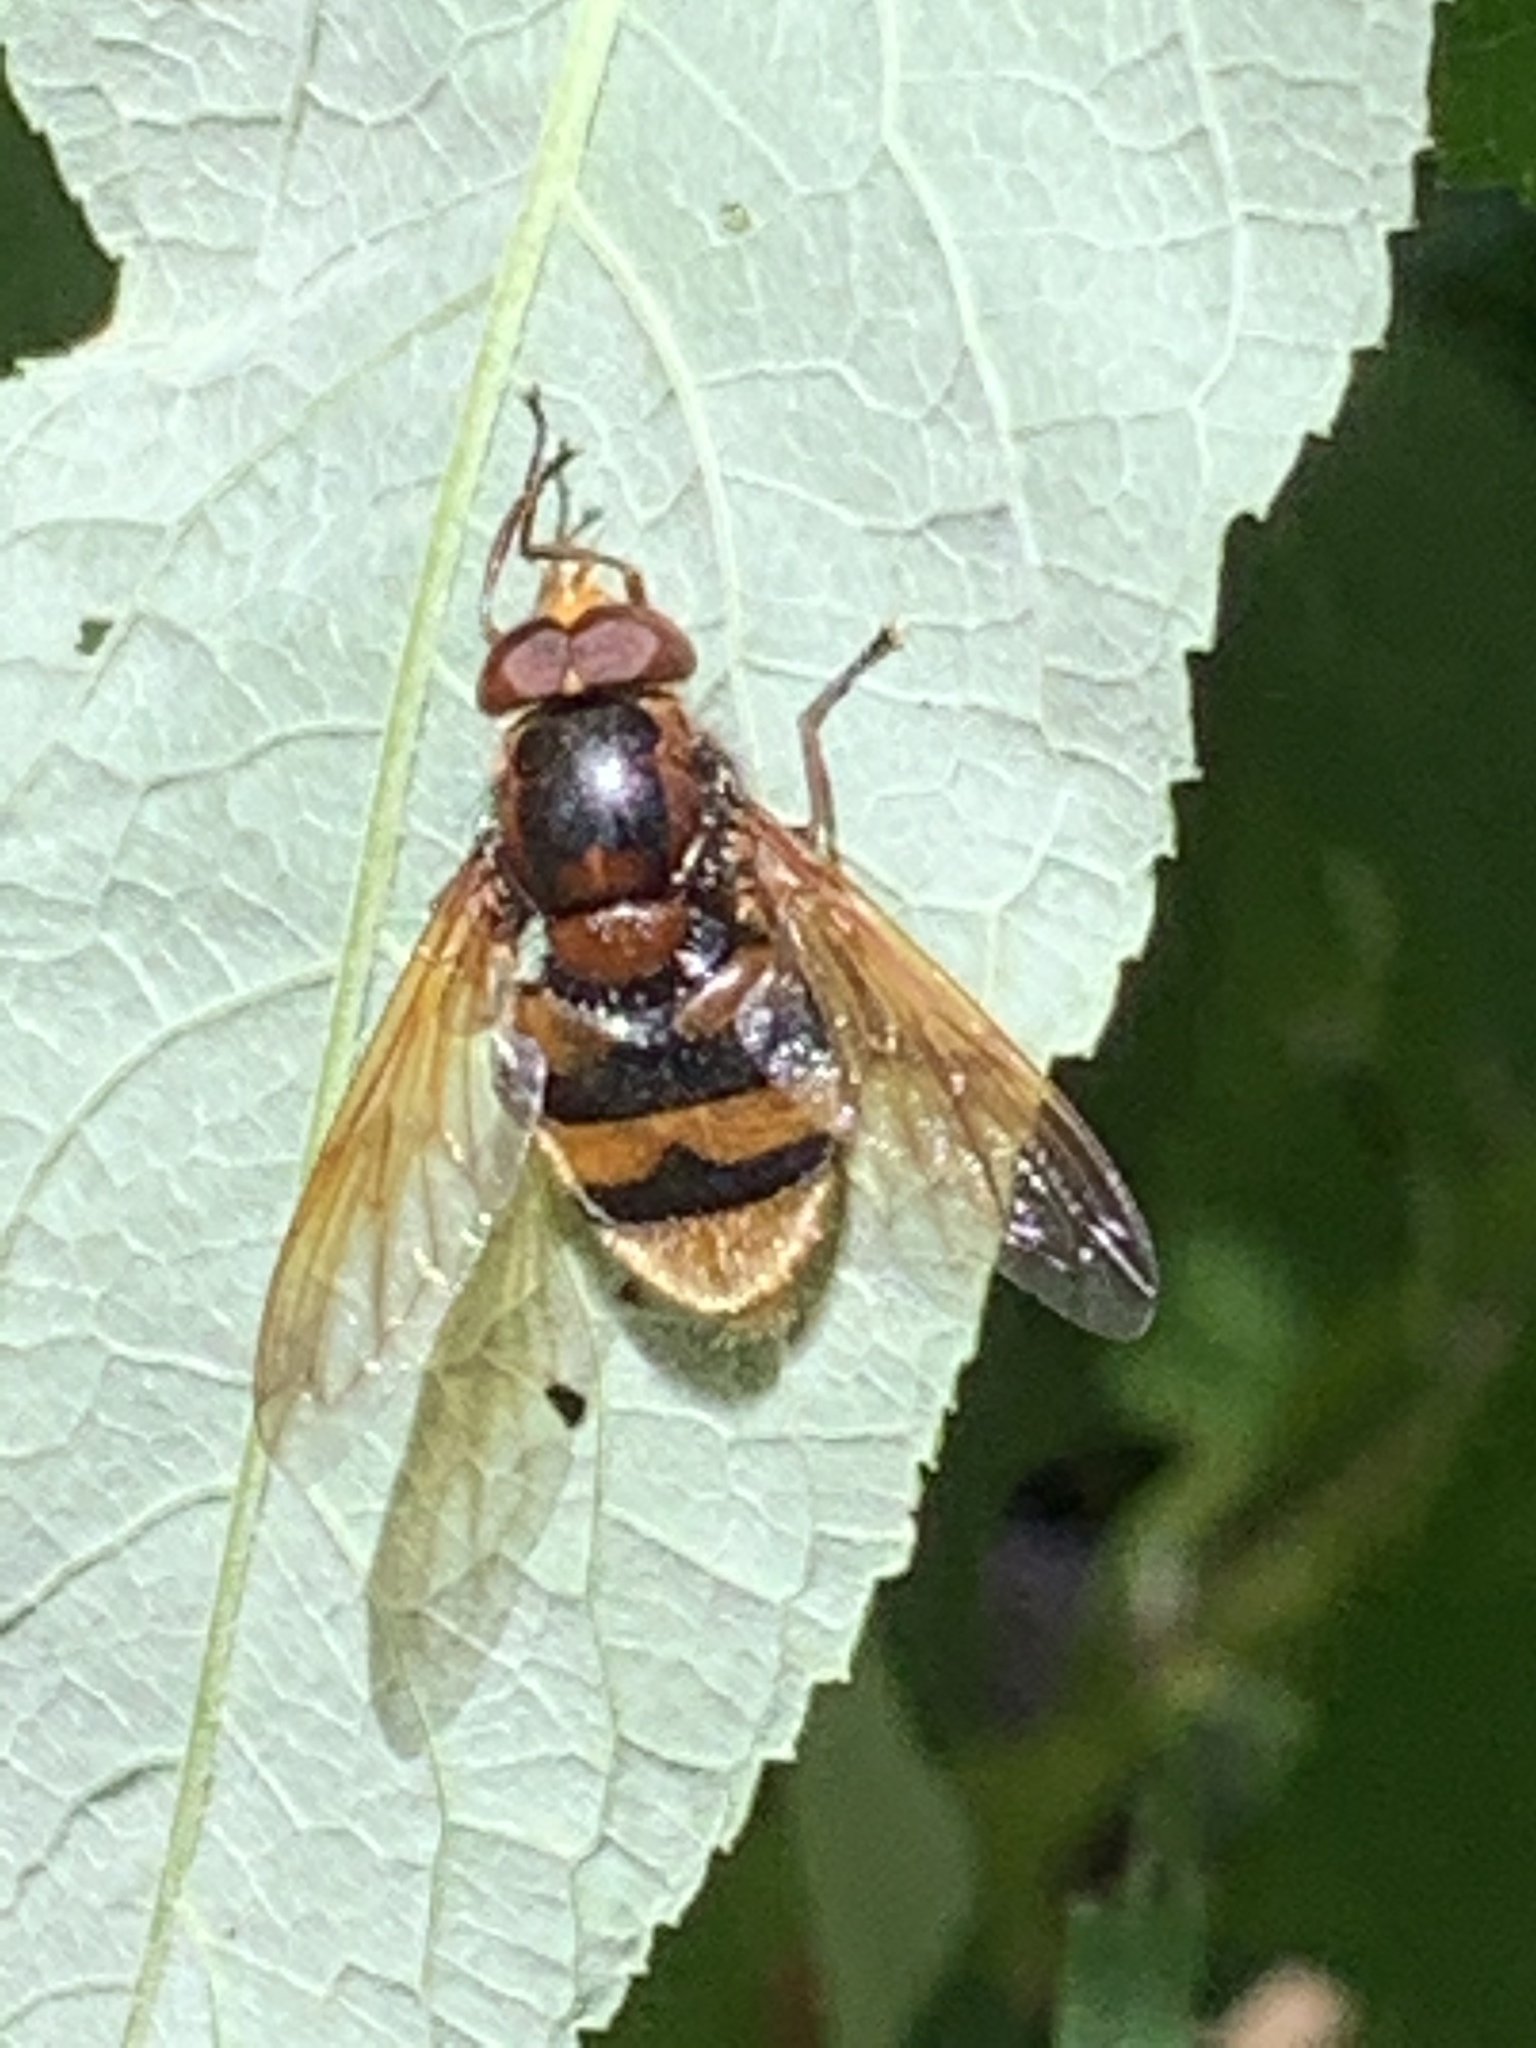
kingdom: Animalia
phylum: Arthropoda
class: Insecta
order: Diptera
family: Syrphidae
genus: Volucella
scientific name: Volucella zonaria
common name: Hornet hoverfly
